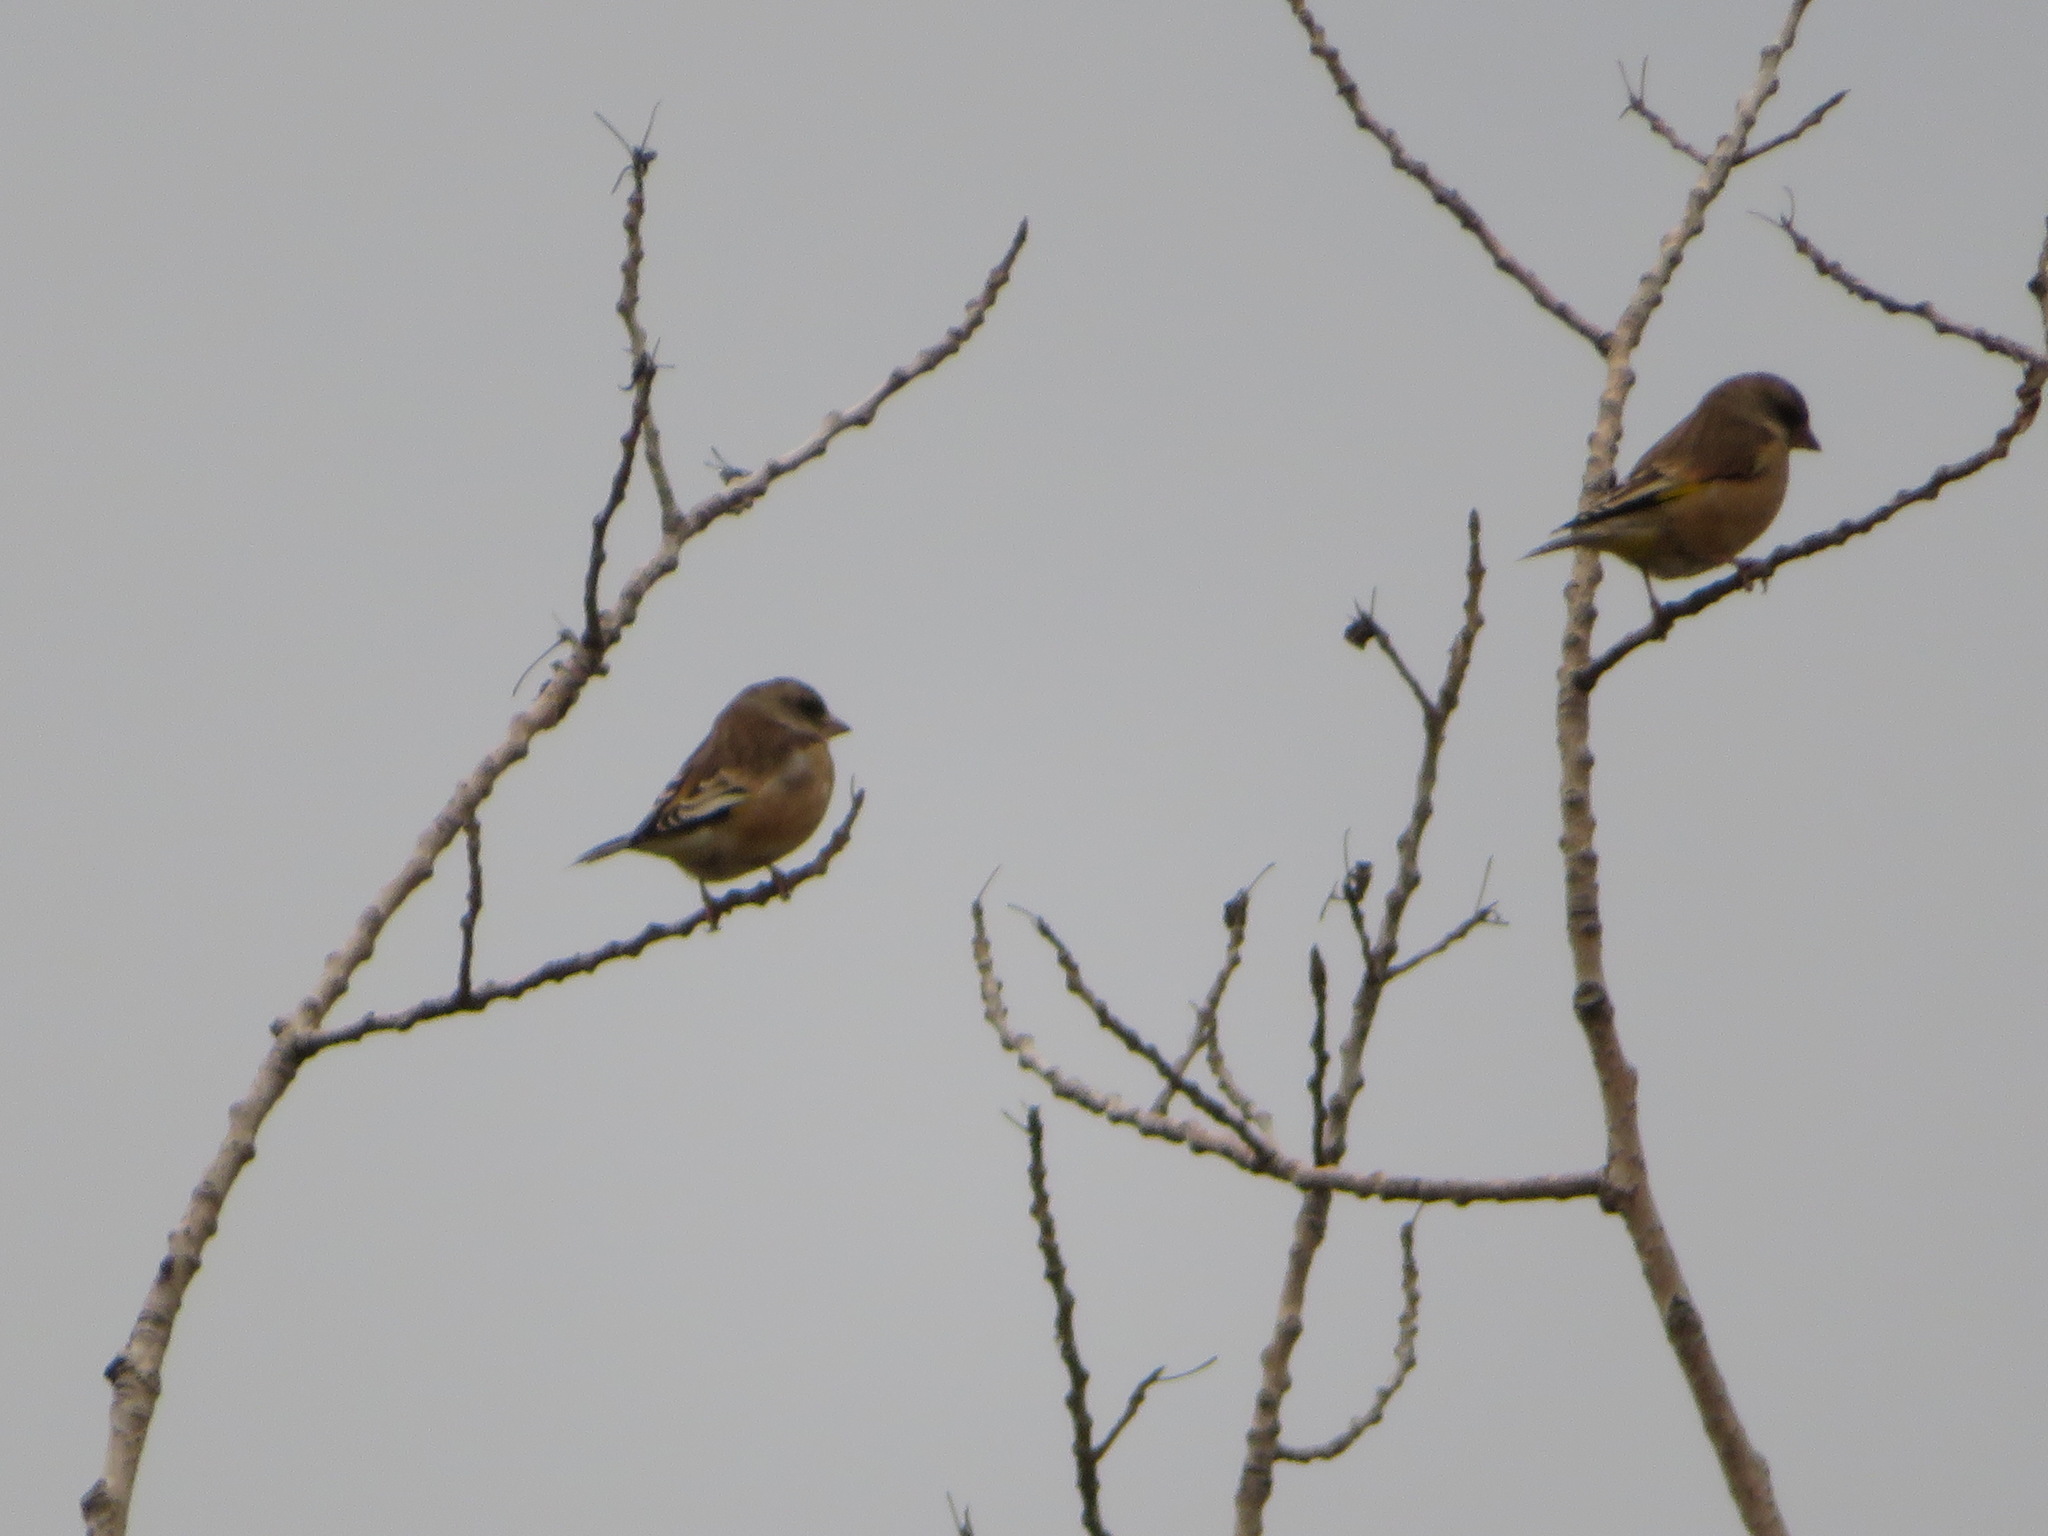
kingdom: Plantae
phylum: Tracheophyta
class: Liliopsida
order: Poales
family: Poaceae
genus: Chloris
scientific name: Chloris sinica
